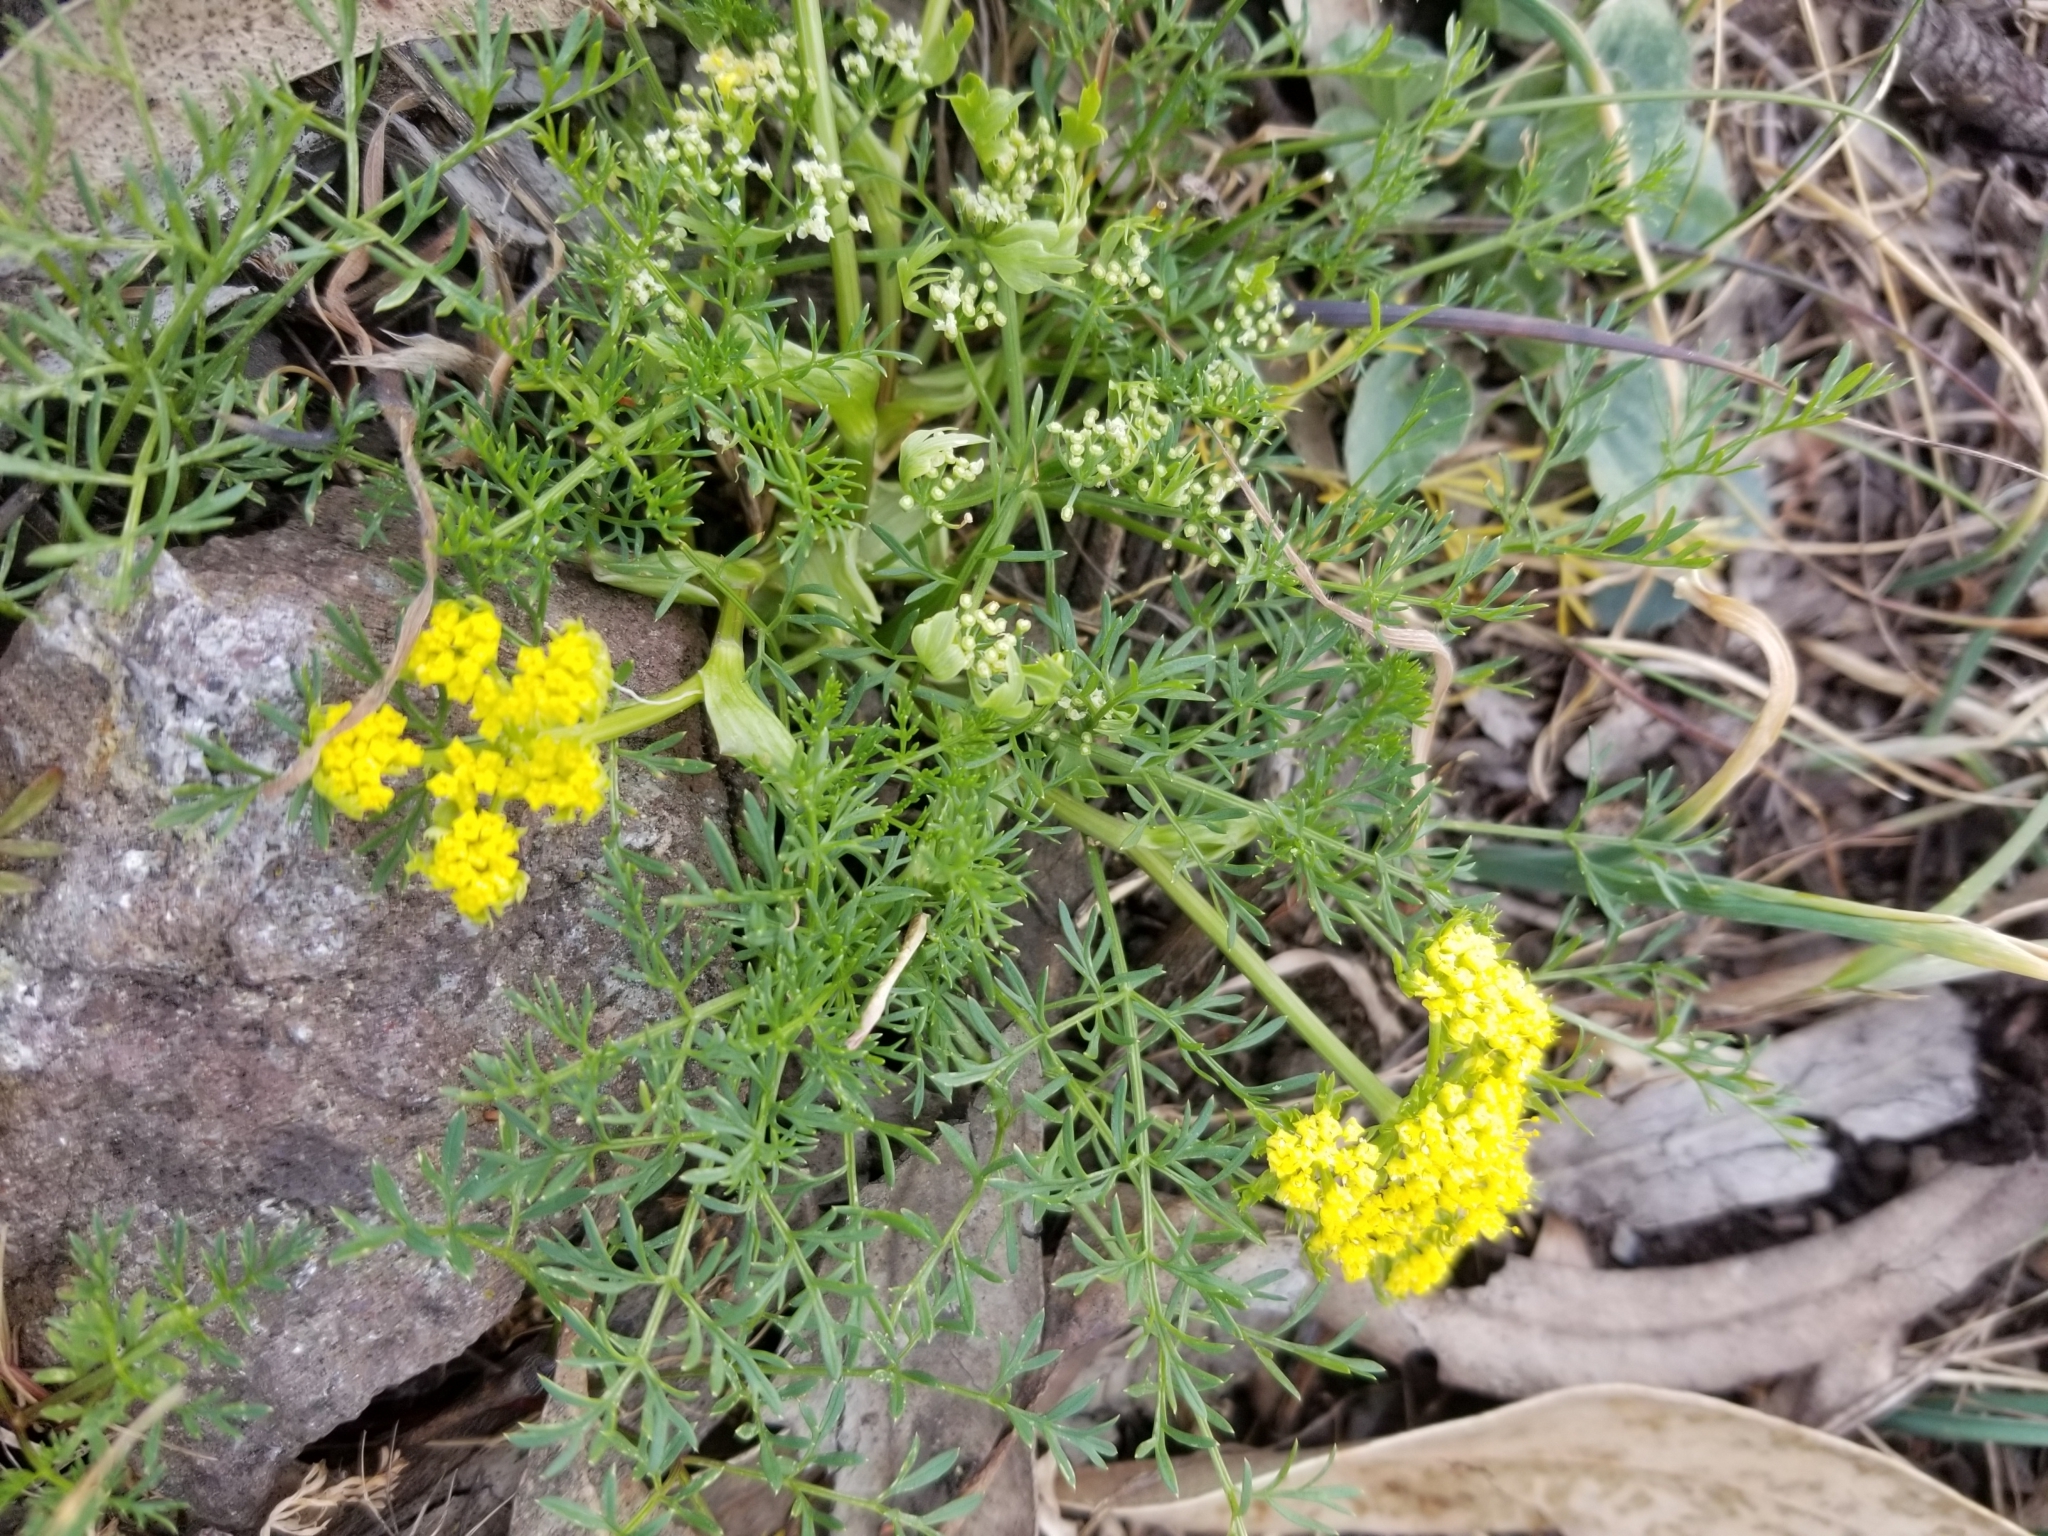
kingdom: Plantae
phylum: Tracheophyta
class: Magnoliopsida
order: Apiales
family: Apiaceae
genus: Lomatium
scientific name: Lomatium utriculatum
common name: Fine-leaf desert-parsley
